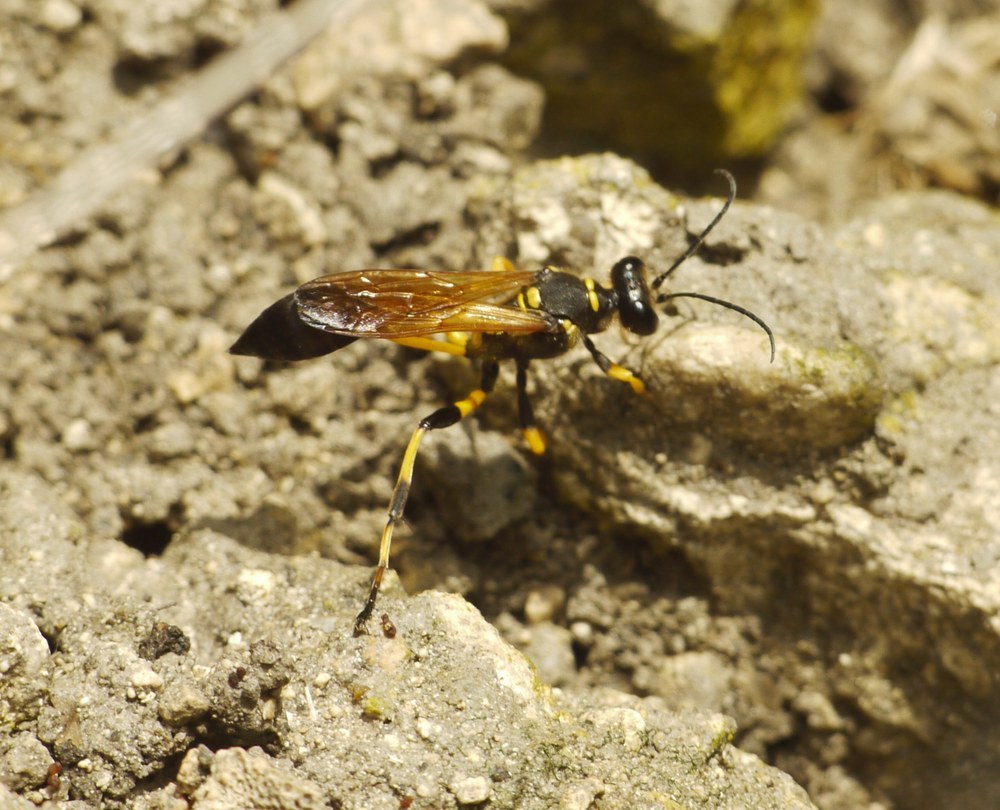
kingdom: Animalia
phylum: Arthropoda
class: Insecta
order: Hymenoptera
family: Sphecidae
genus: Sceliphron
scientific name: Sceliphron madraspatanum
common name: Mud dauber
